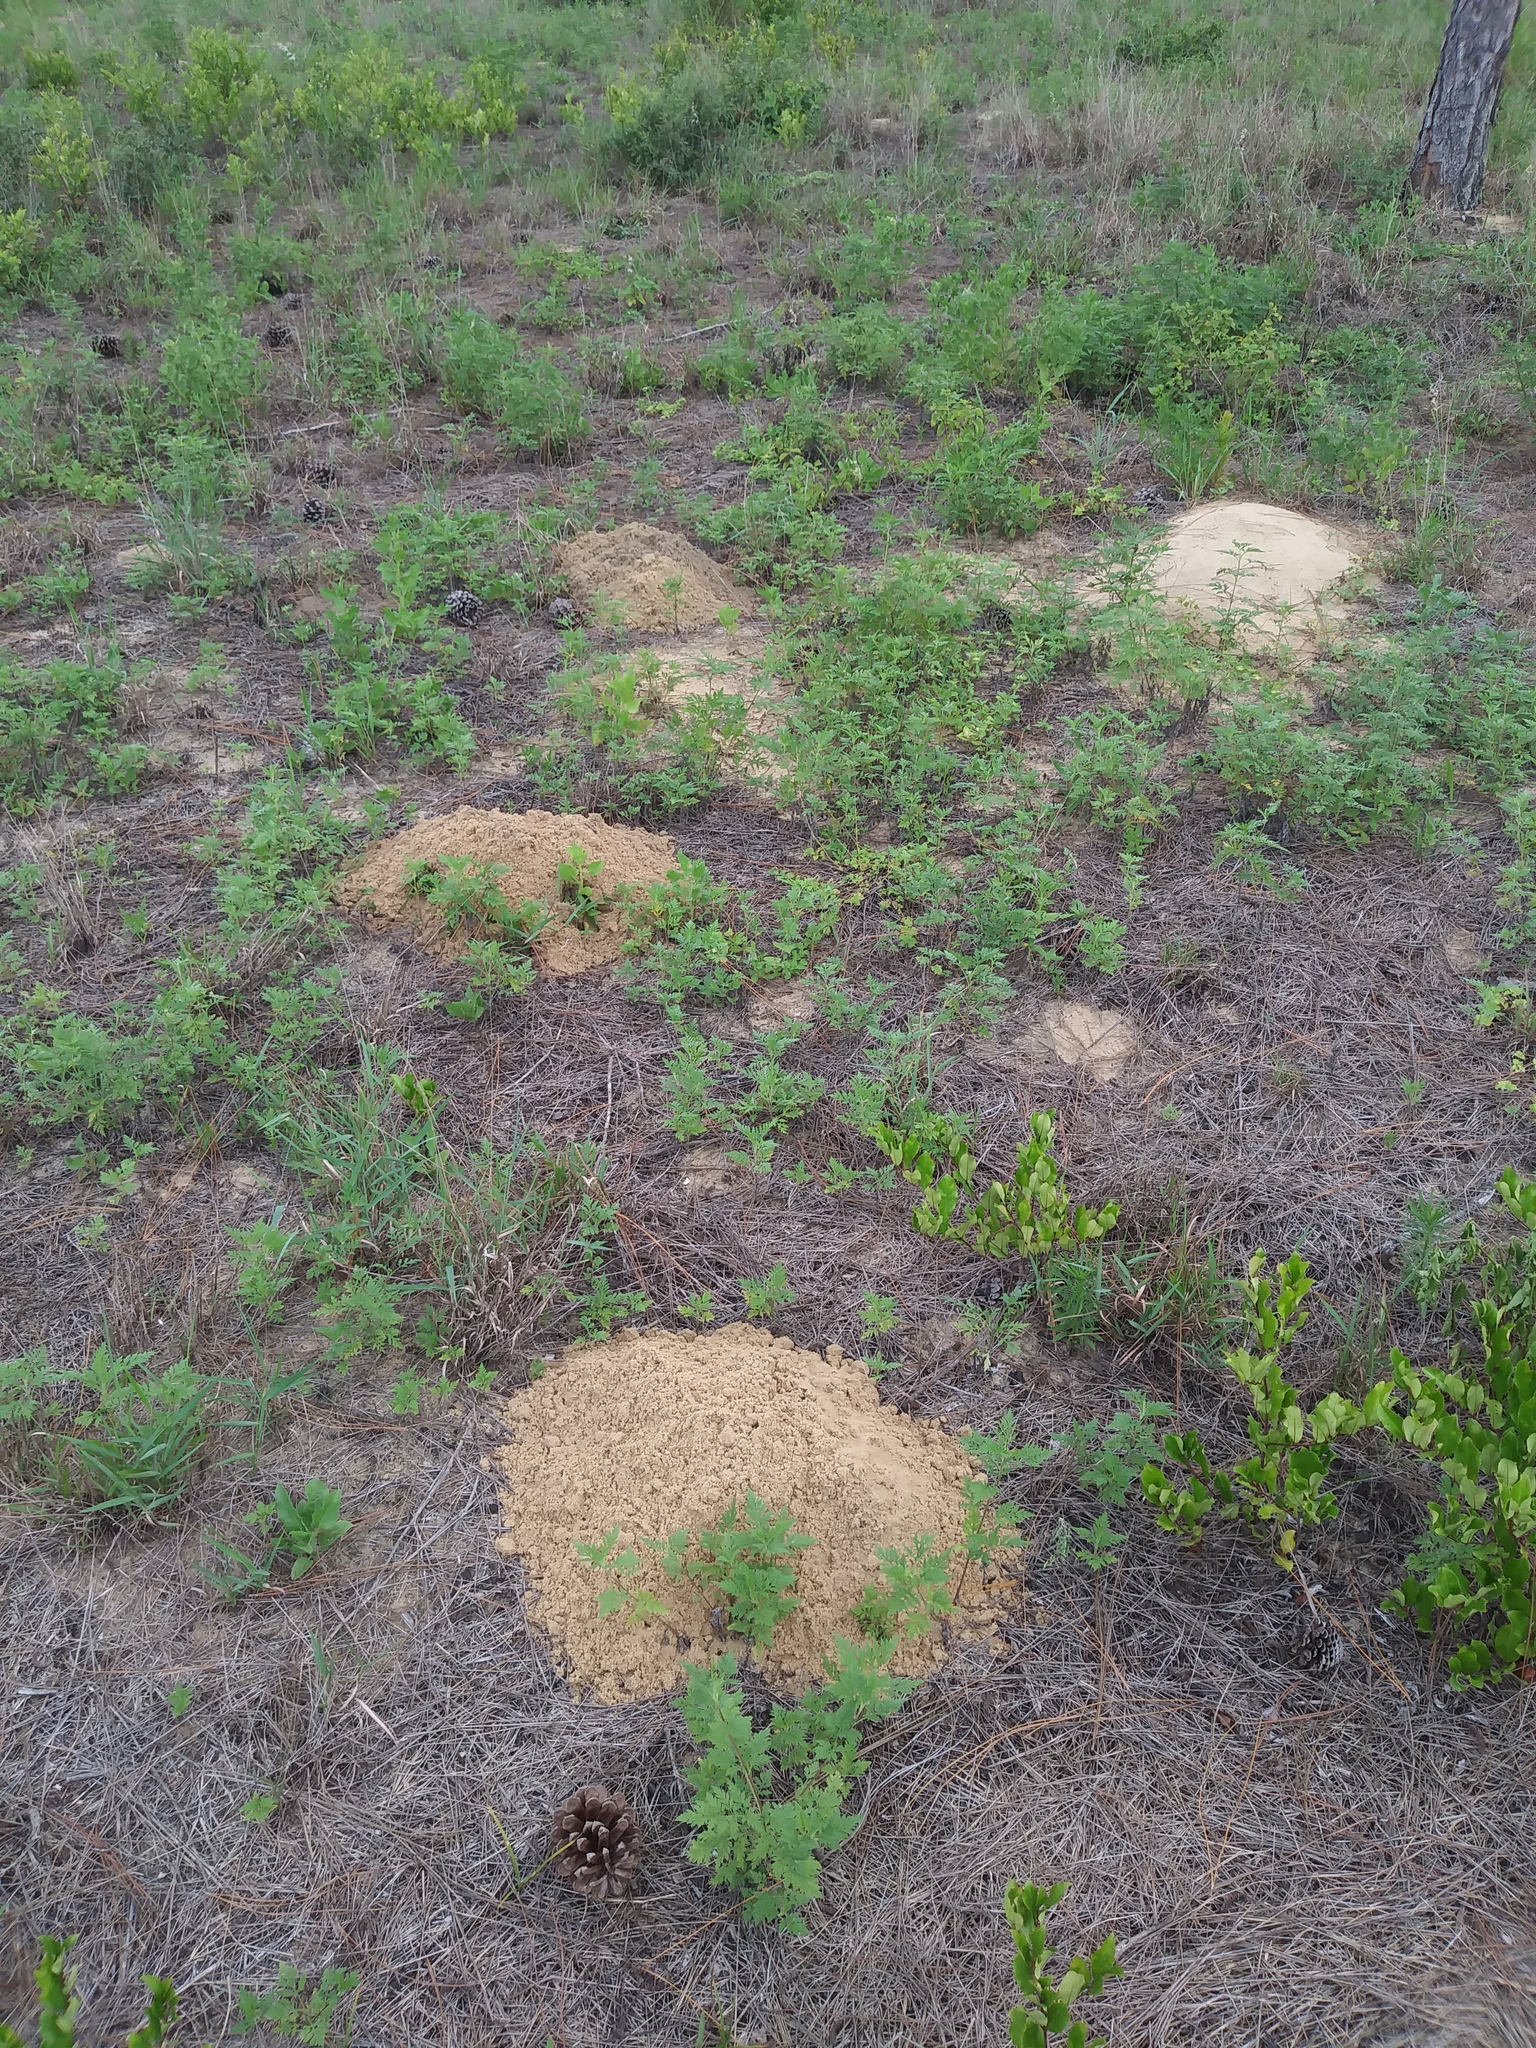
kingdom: Animalia
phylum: Chordata
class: Mammalia
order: Rodentia
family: Geomyidae
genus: Geomys
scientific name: Geomys pinetis
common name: Southeastern pocket gopher
